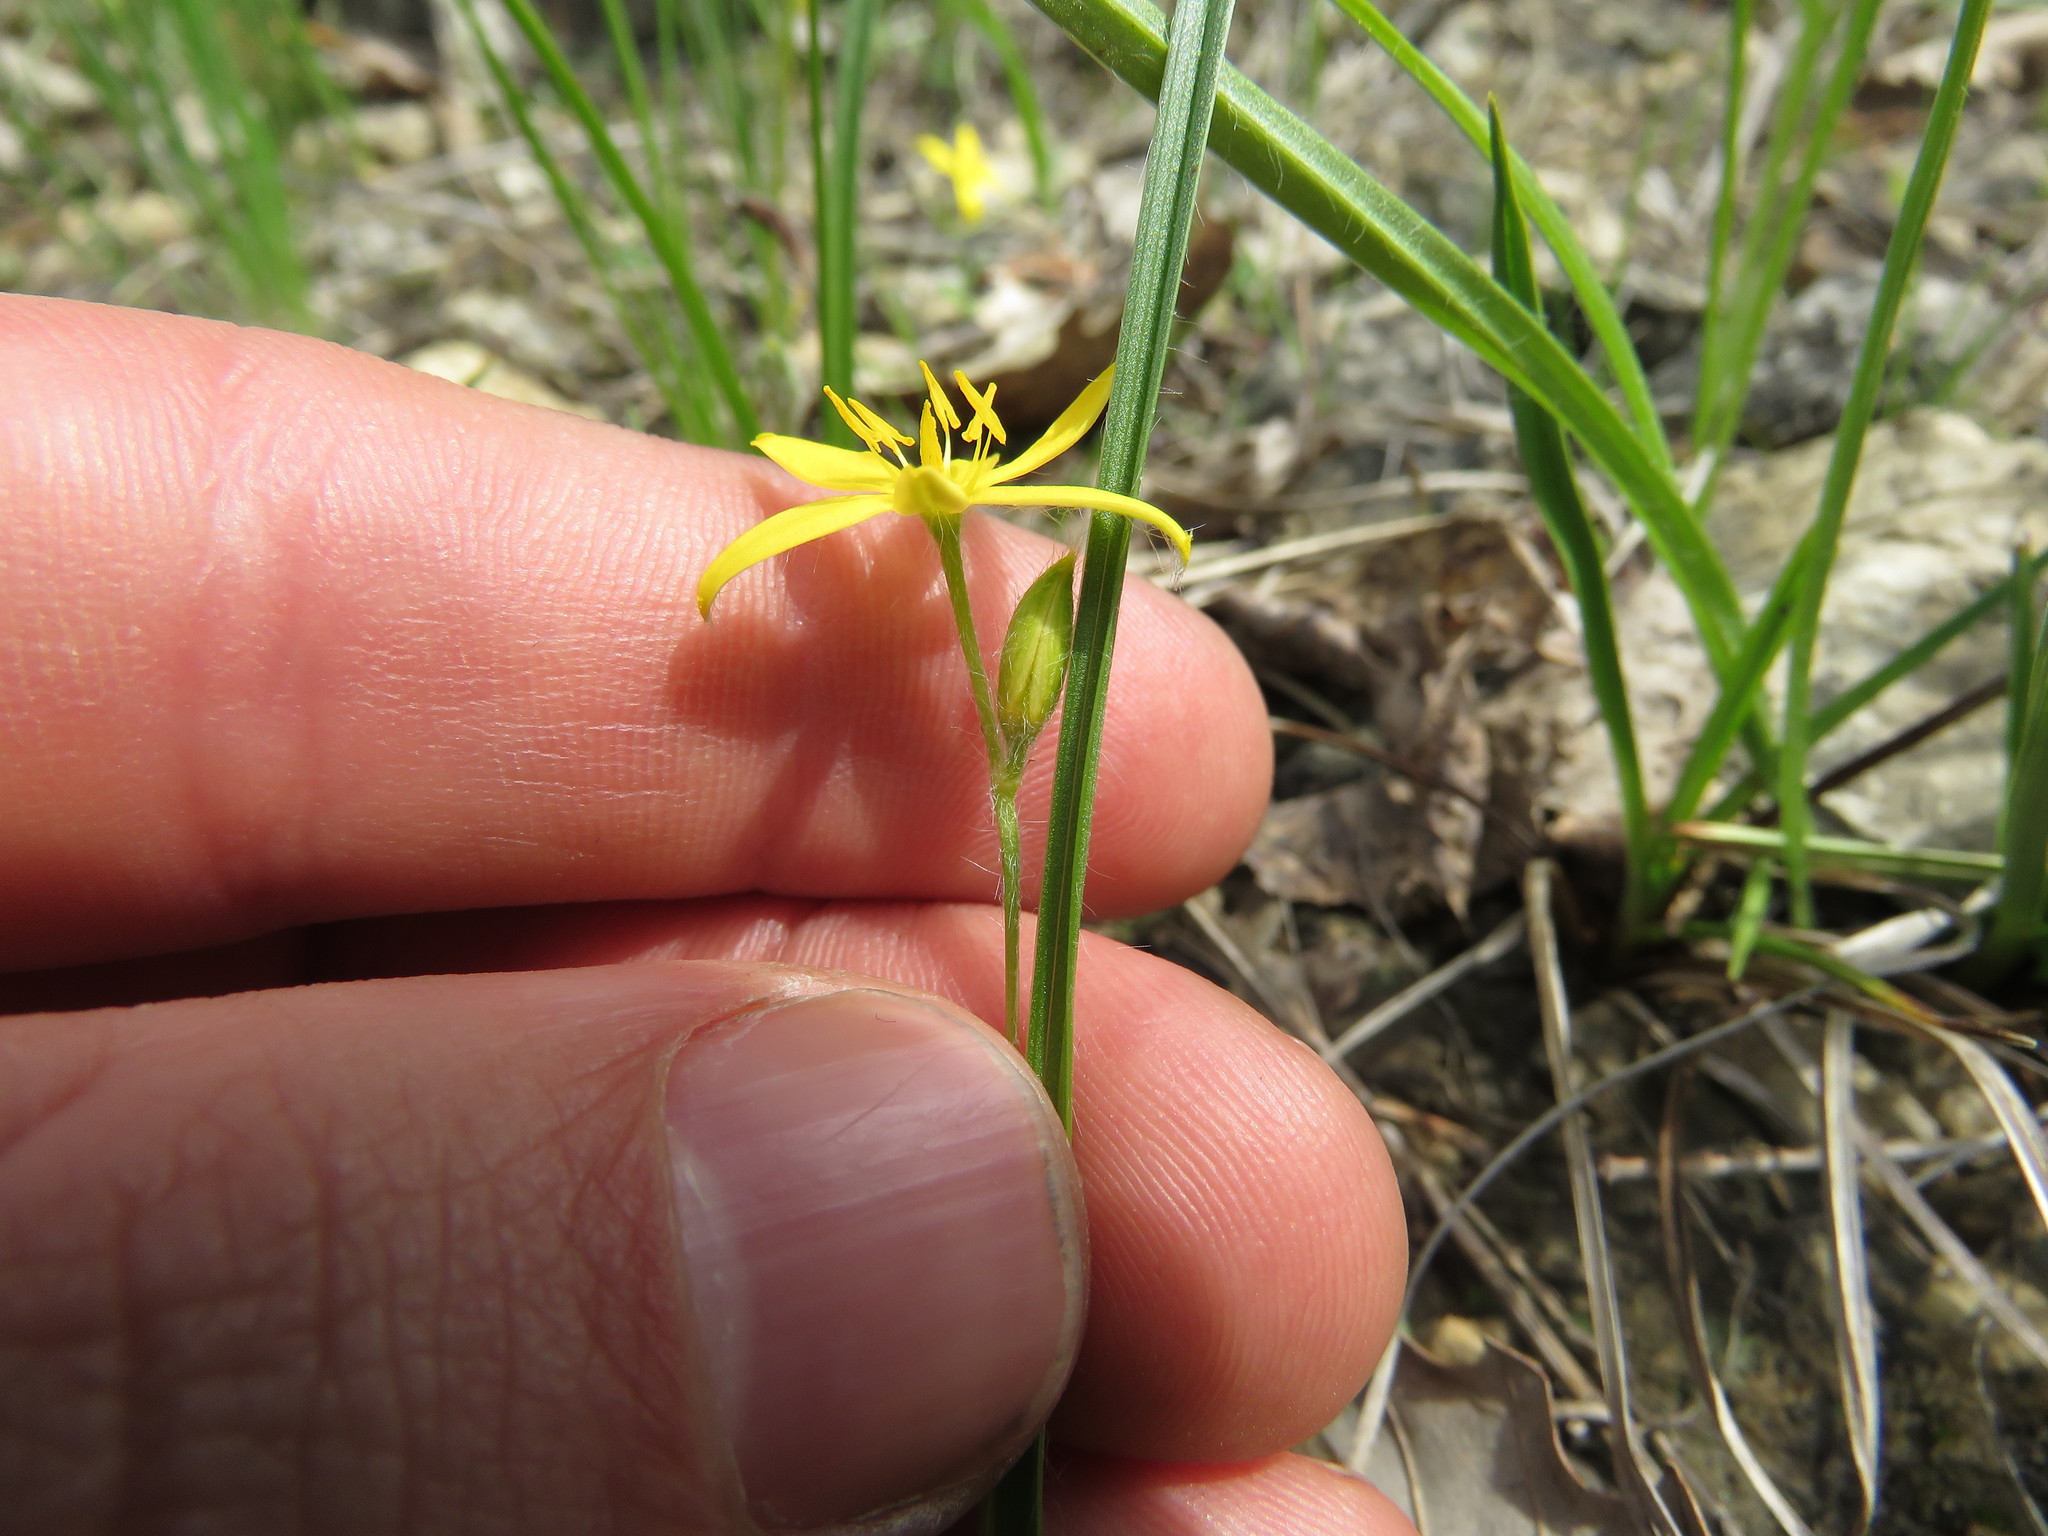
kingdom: Plantae
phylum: Tracheophyta
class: Liliopsida
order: Asparagales
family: Hypoxidaceae
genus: Hypoxis
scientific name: Hypoxis hirsuta
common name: Common goldstar
